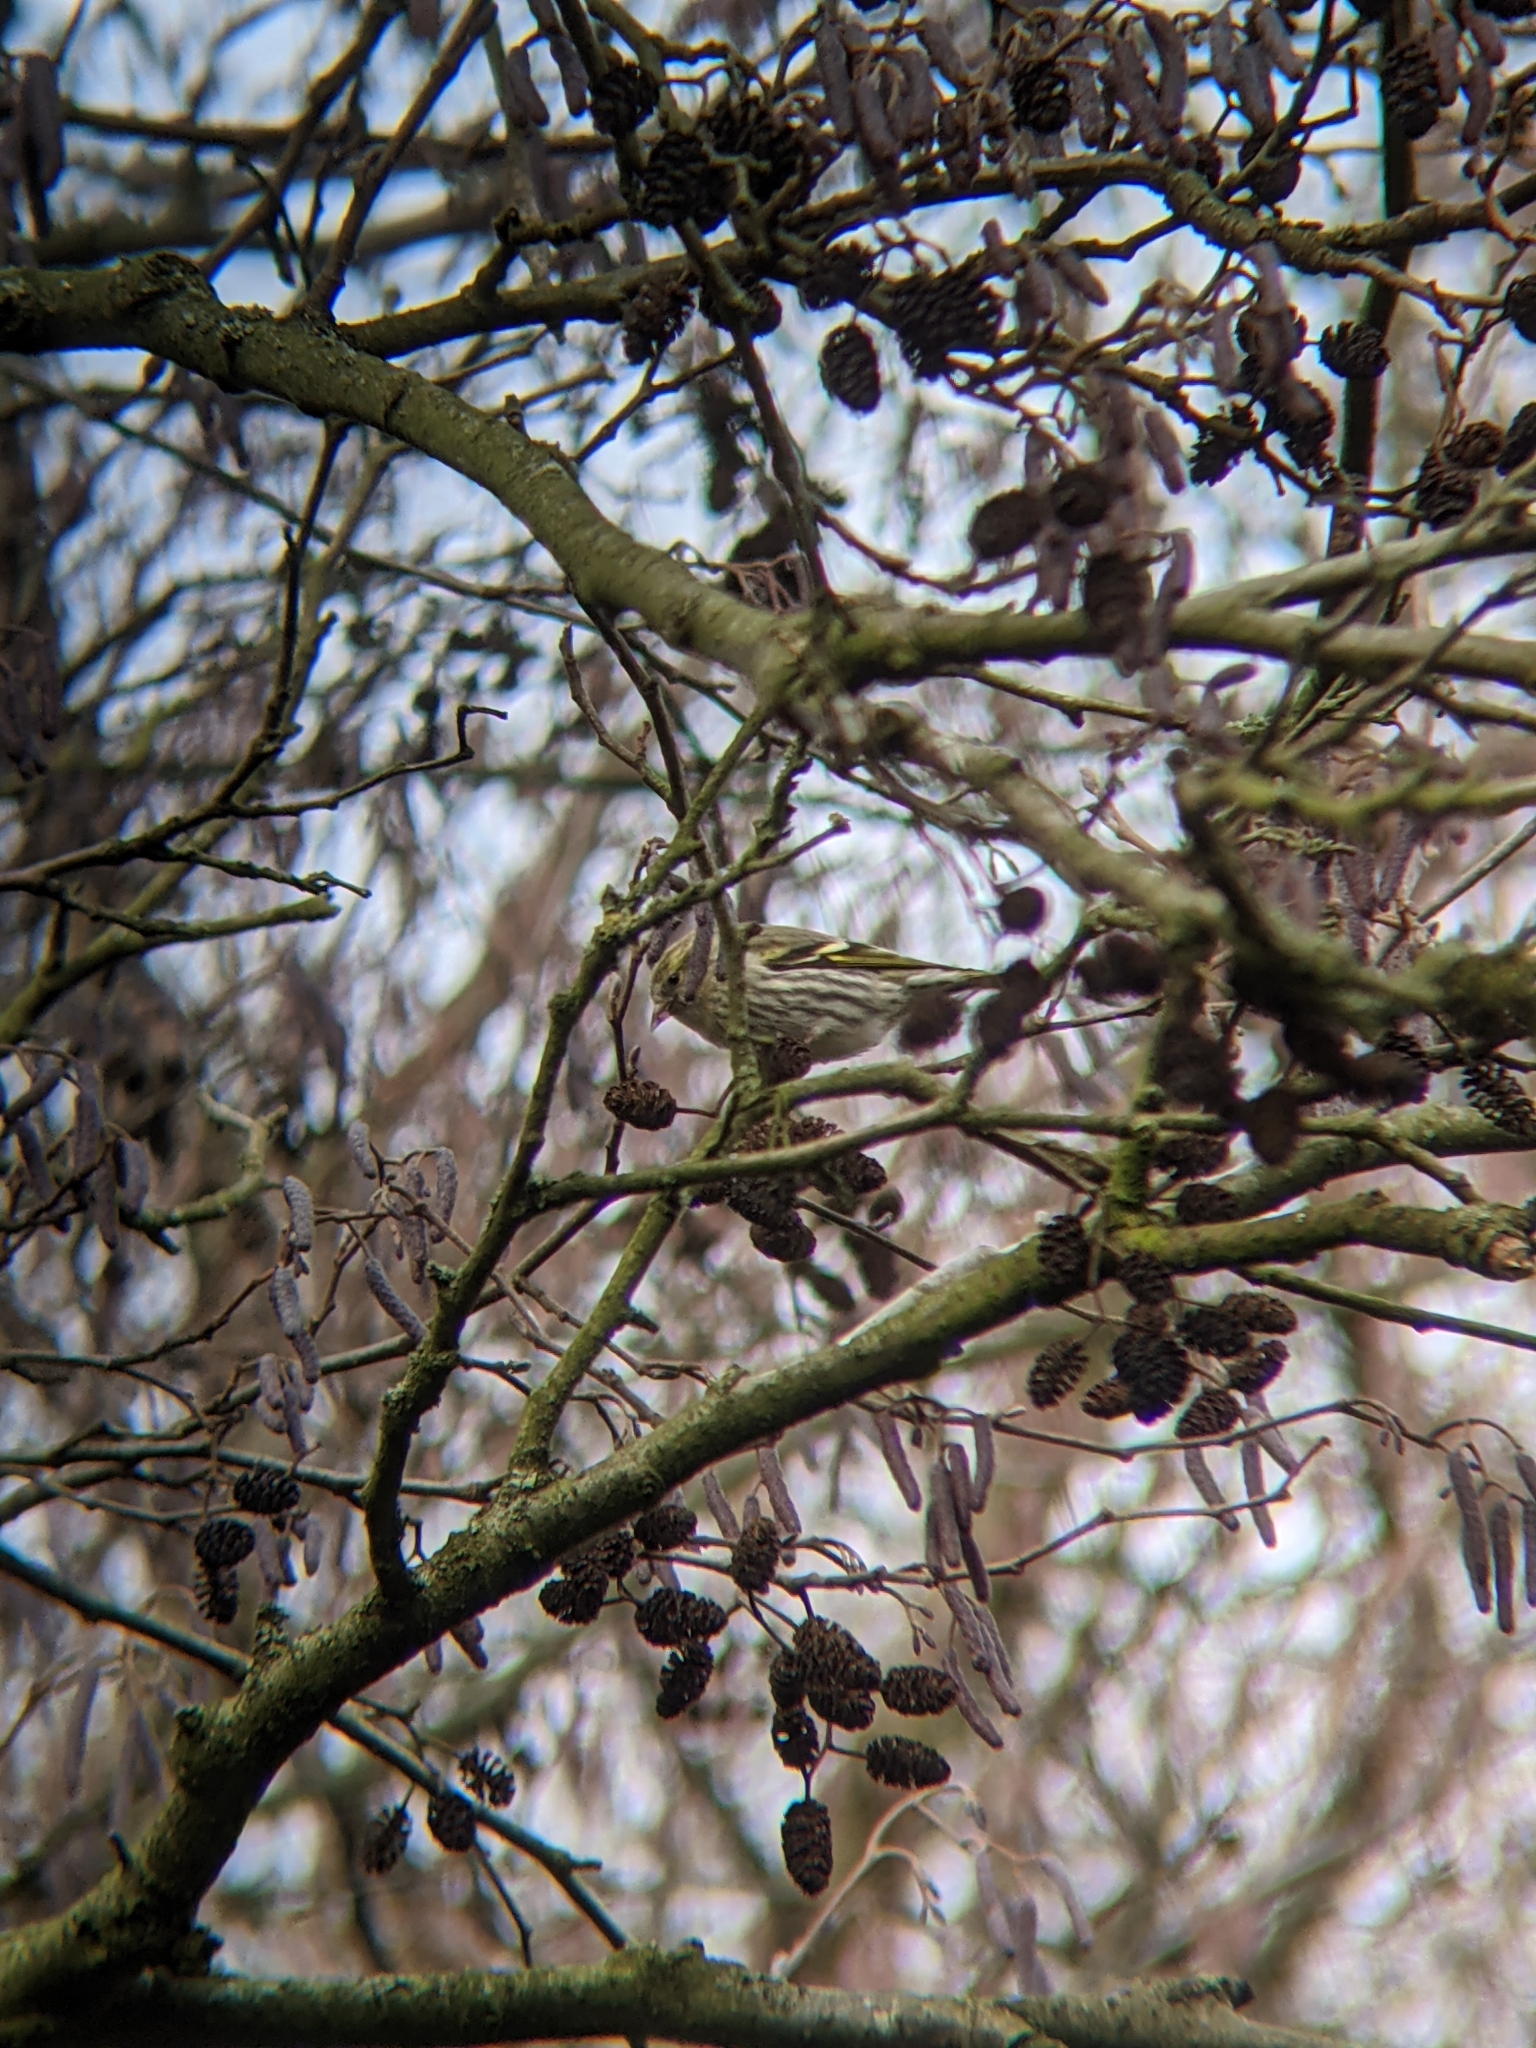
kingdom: Animalia
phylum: Chordata
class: Aves
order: Passeriformes
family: Fringillidae
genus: Spinus
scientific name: Spinus spinus
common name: Eurasian siskin
